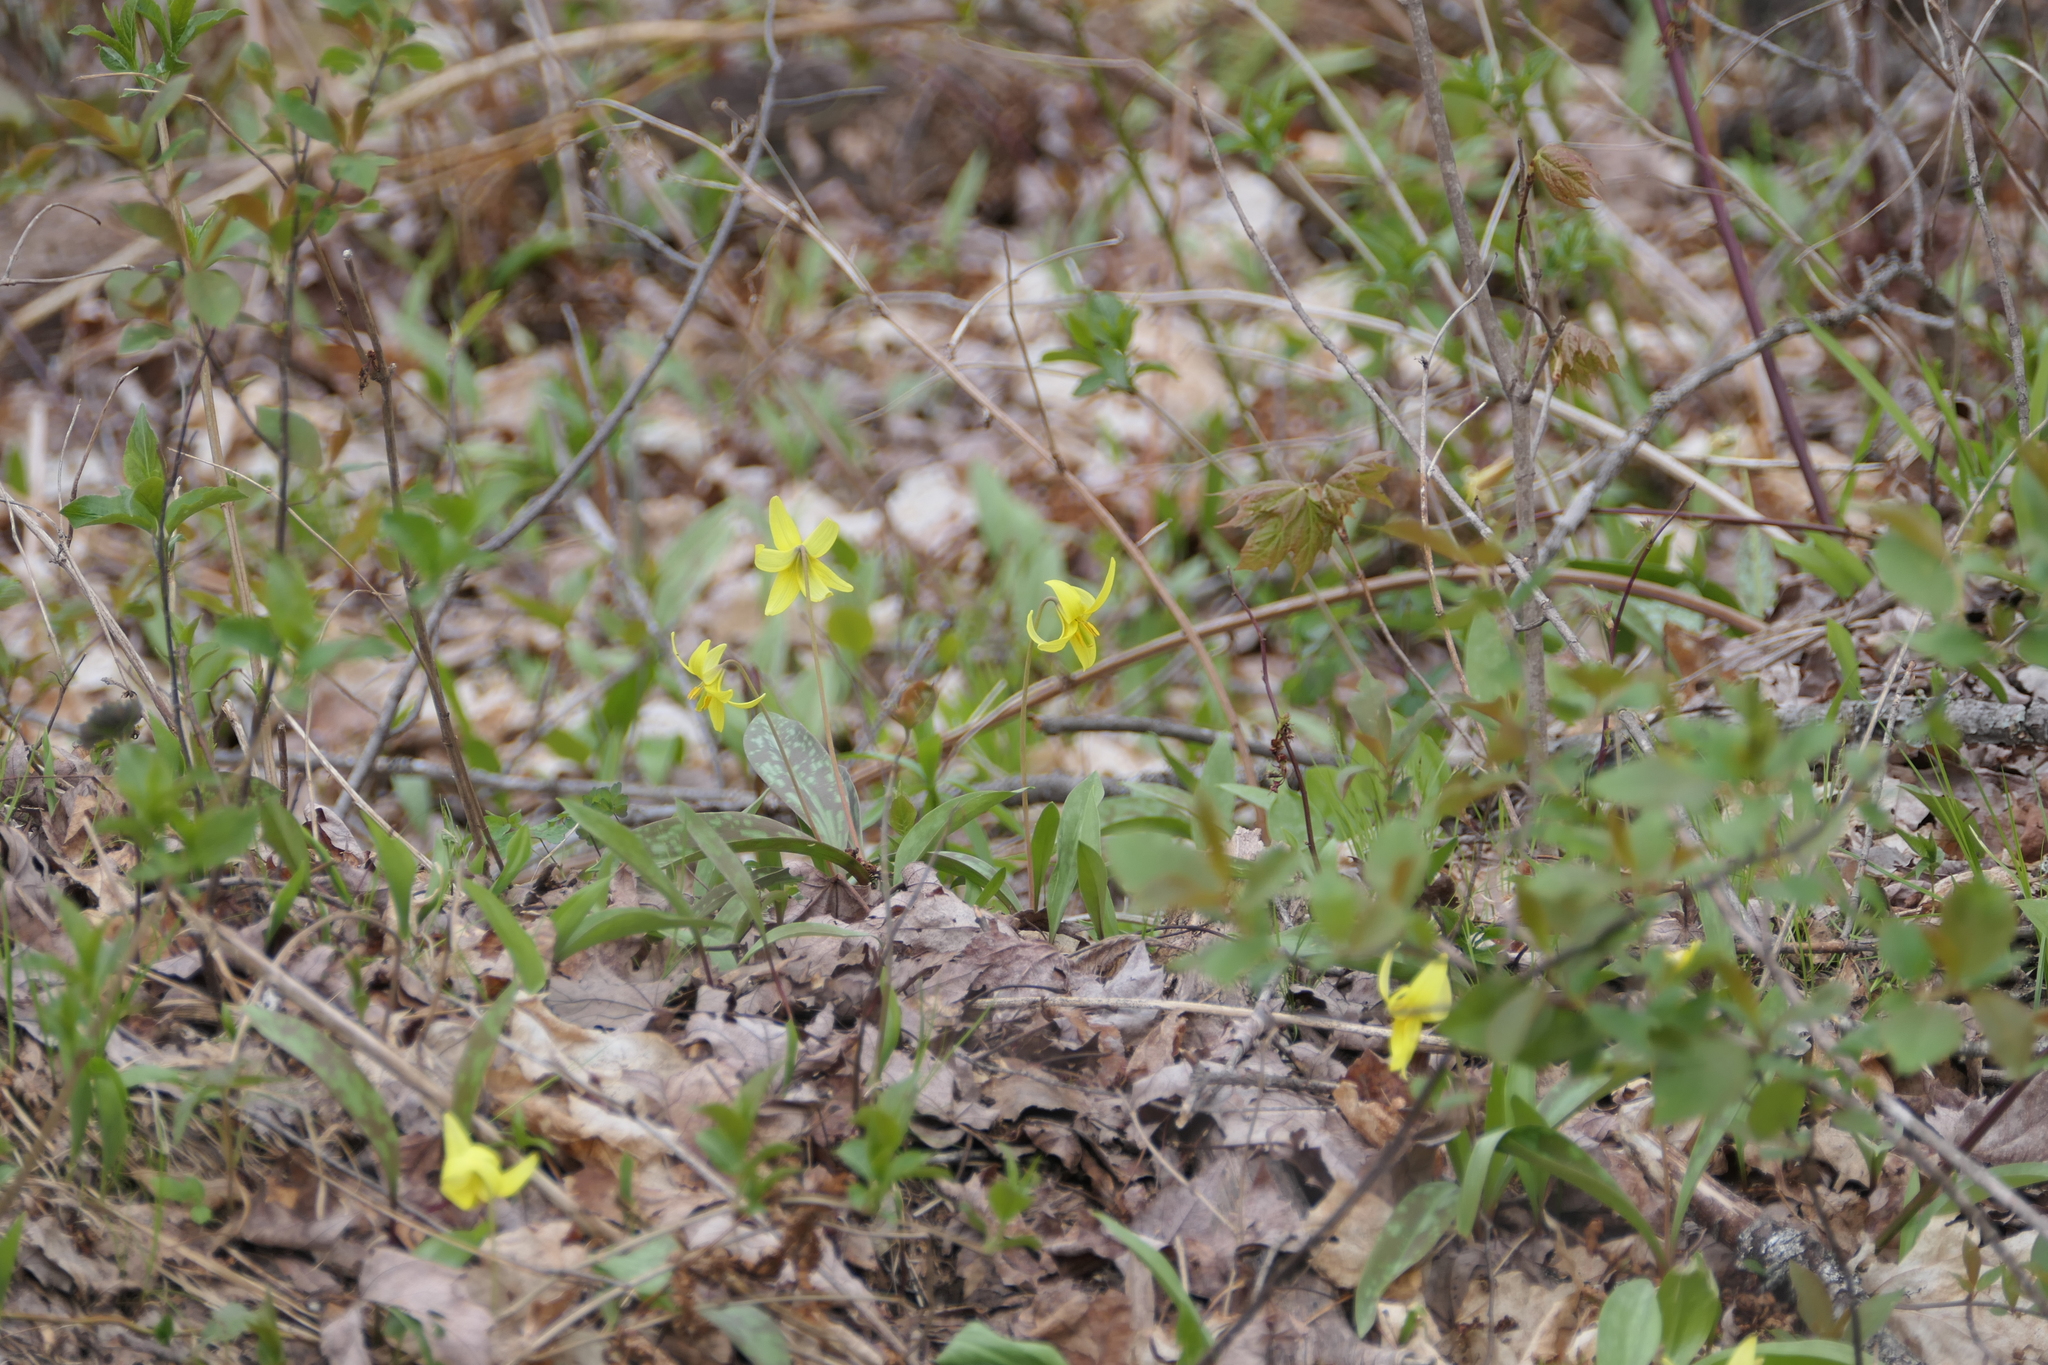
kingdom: Plantae
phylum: Tracheophyta
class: Liliopsida
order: Liliales
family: Liliaceae
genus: Erythronium
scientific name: Erythronium americanum
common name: Yellow adder's-tongue
